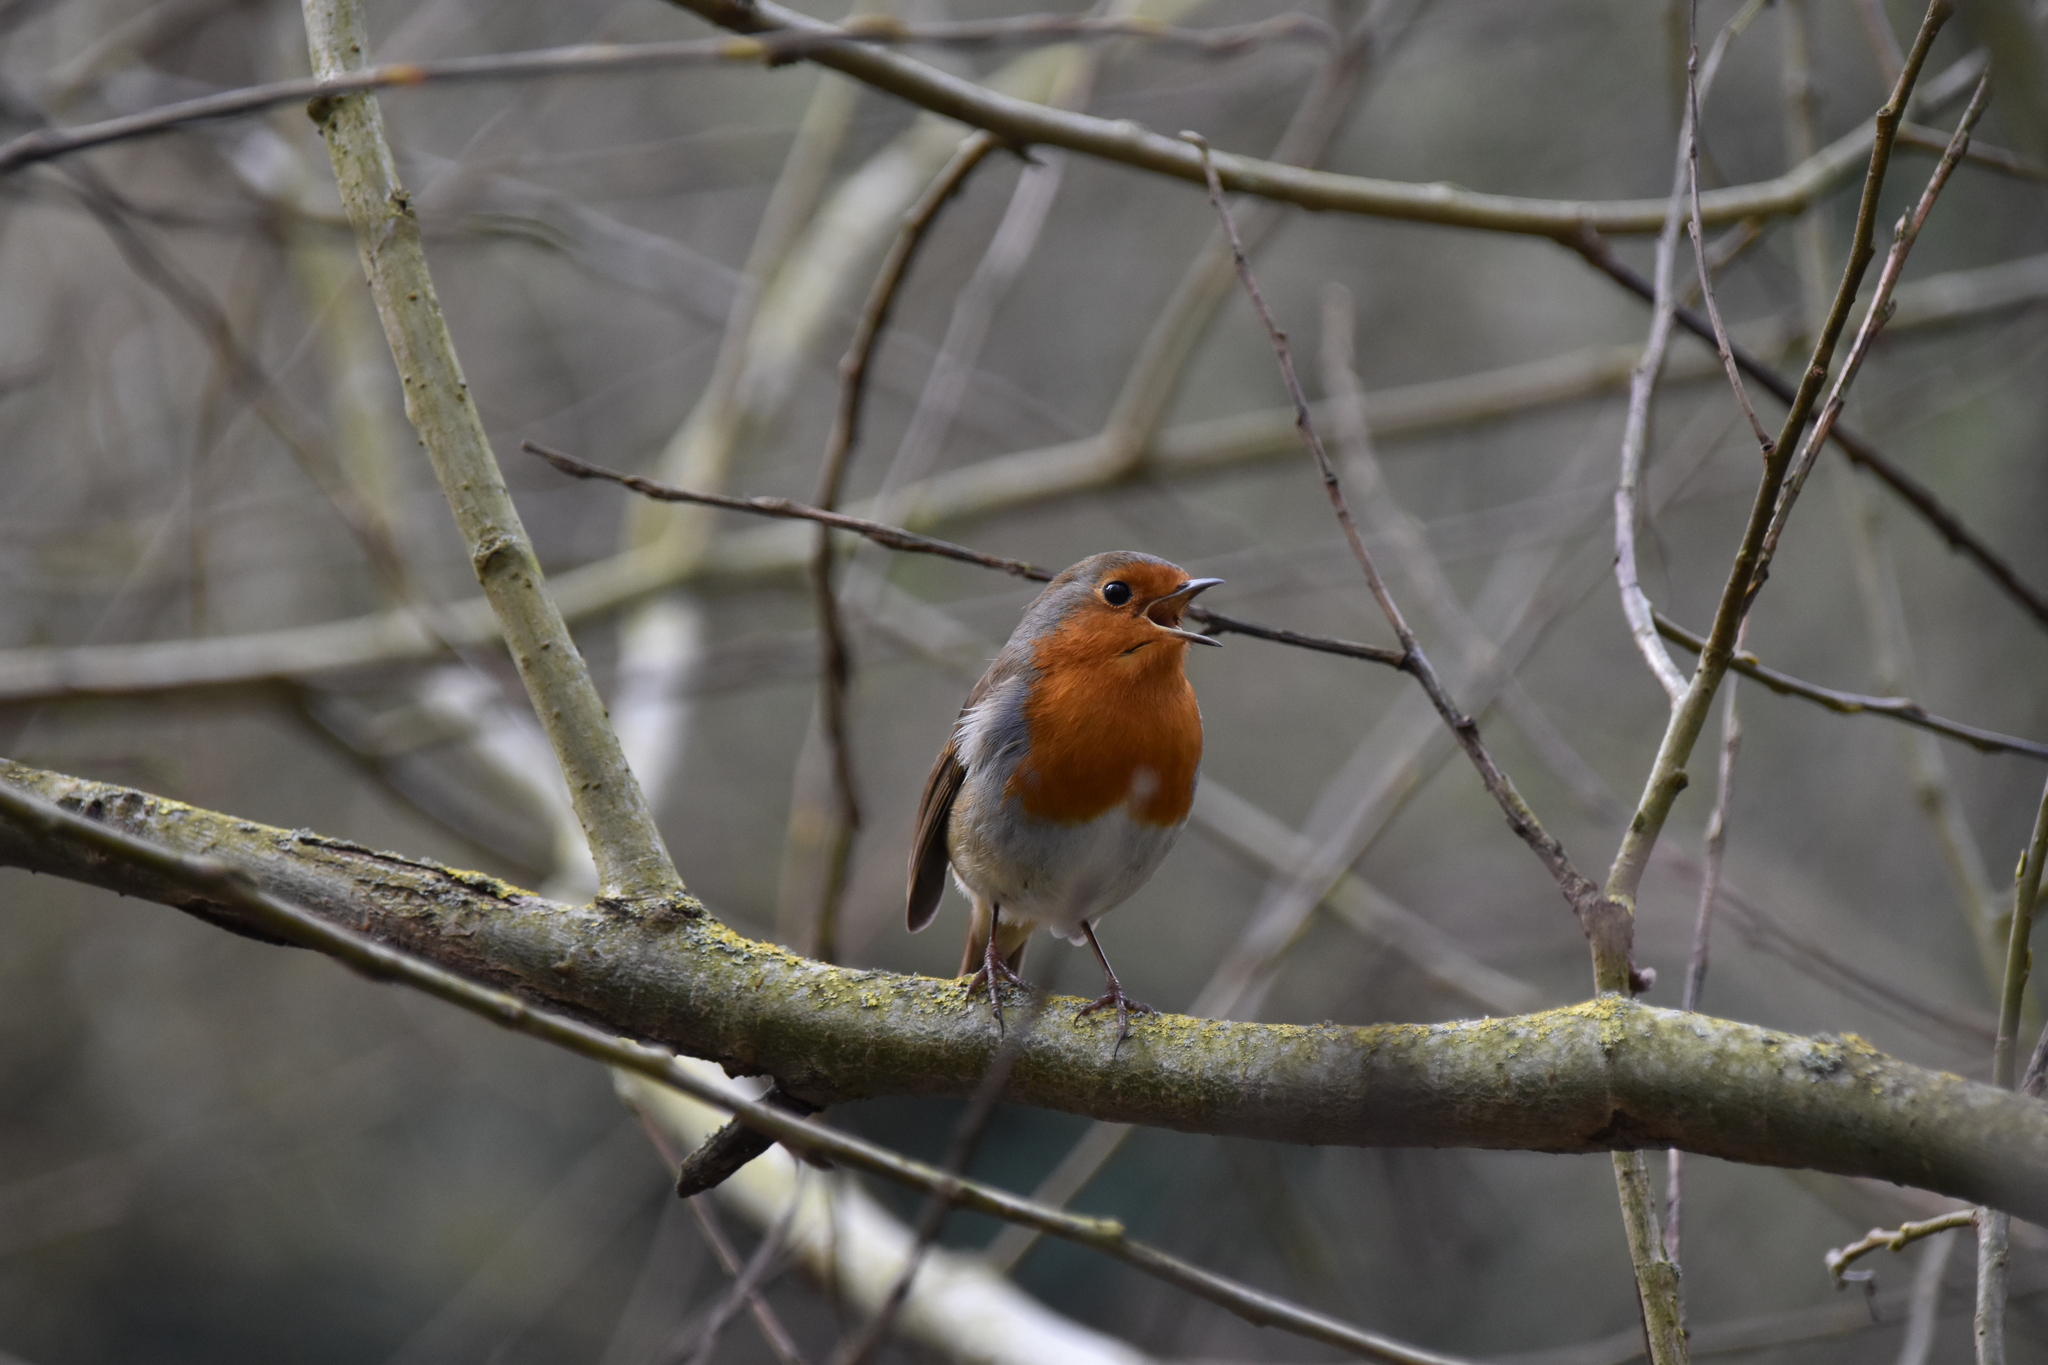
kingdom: Animalia
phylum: Chordata
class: Aves
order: Passeriformes
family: Muscicapidae
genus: Erithacus
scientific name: Erithacus rubecula
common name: European robin
